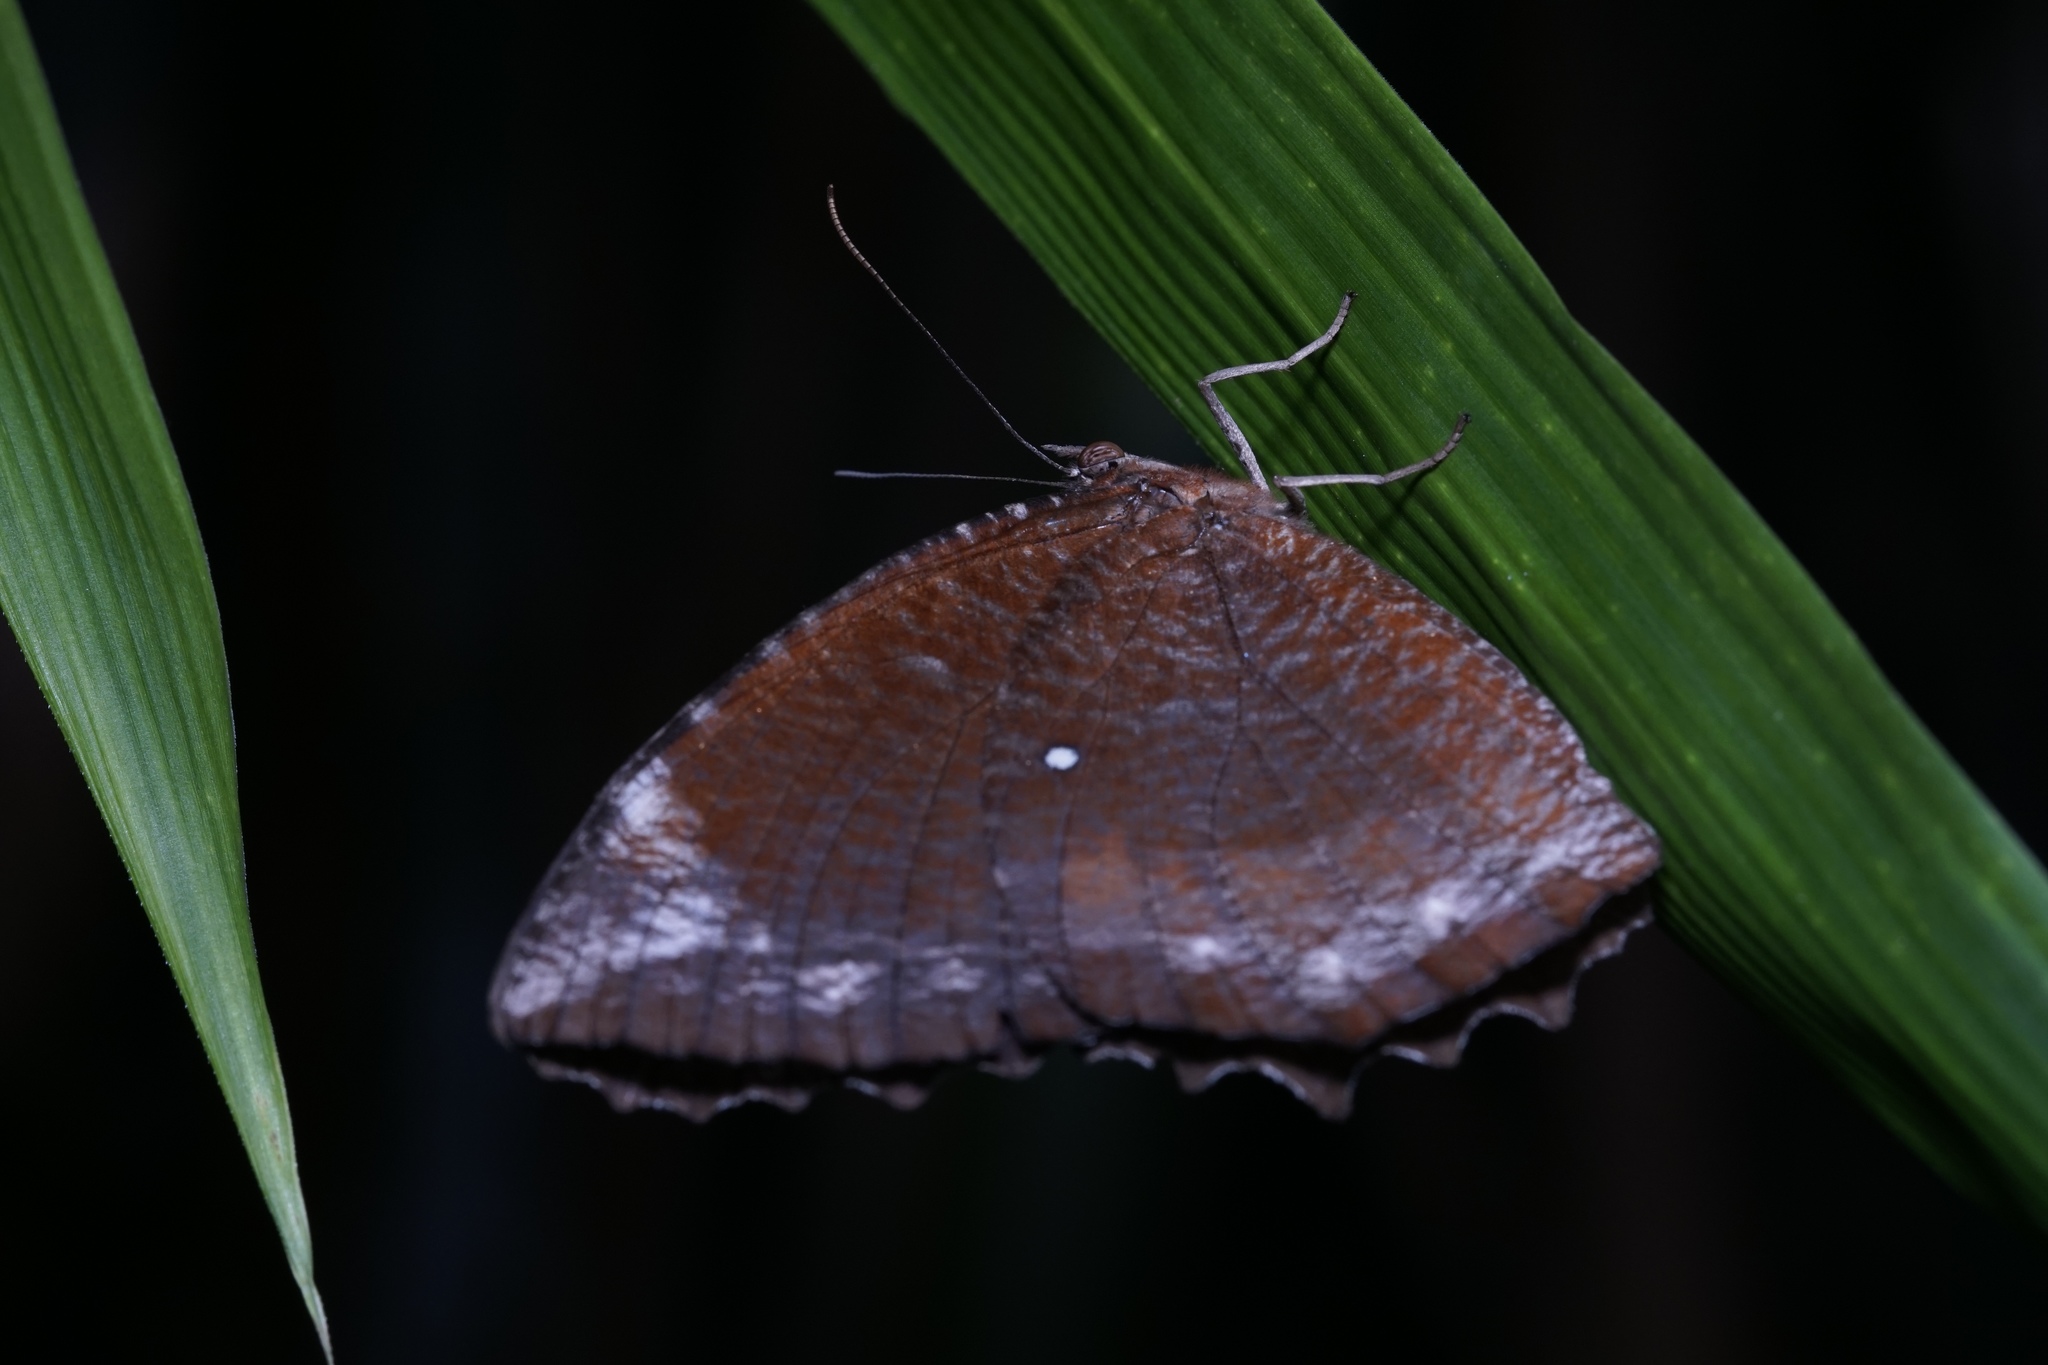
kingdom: Animalia
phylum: Arthropoda
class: Insecta
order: Lepidoptera
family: Nymphalidae
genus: Elymnias
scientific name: Elymnias hypermnestra
